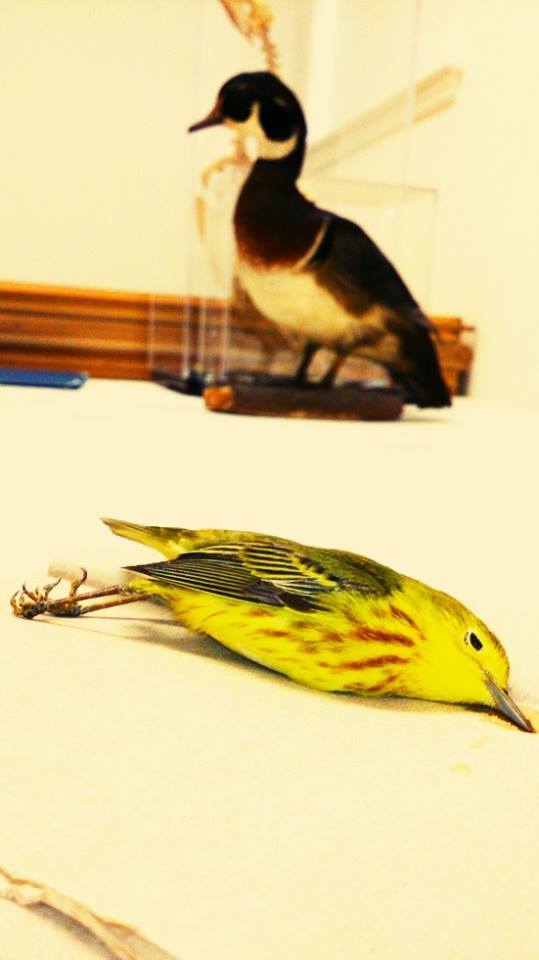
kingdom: Animalia
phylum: Chordata
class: Aves
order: Passeriformes
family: Parulidae
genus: Setophaga
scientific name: Setophaga petechia
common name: Yellow warbler
